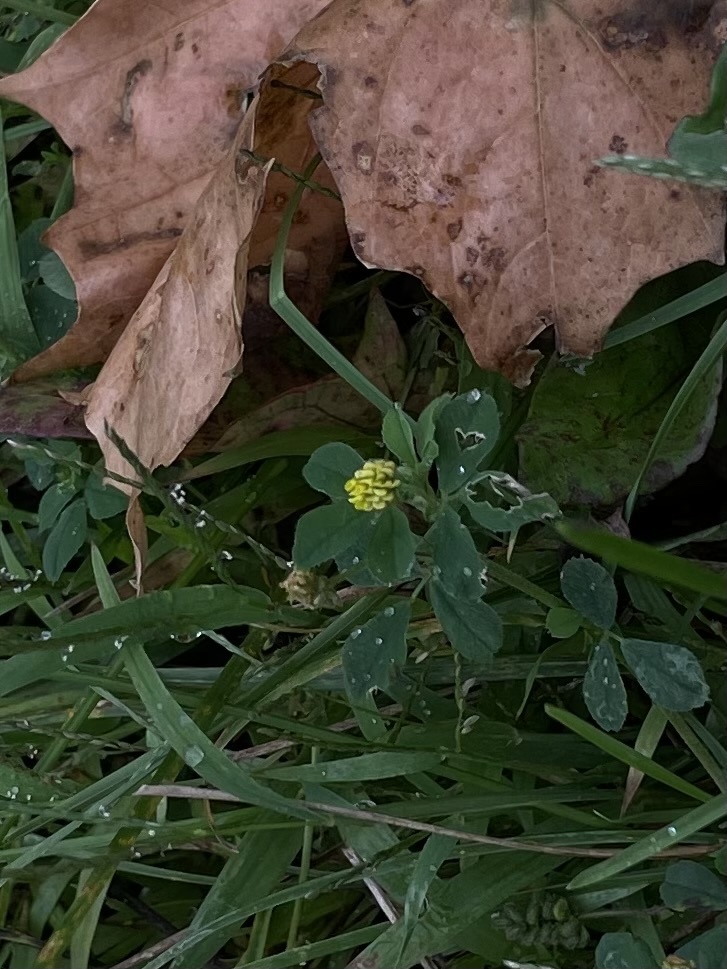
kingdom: Plantae
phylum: Tracheophyta
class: Magnoliopsida
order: Fabales
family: Fabaceae
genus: Medicago
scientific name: Medicago lupulina
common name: Black medick
